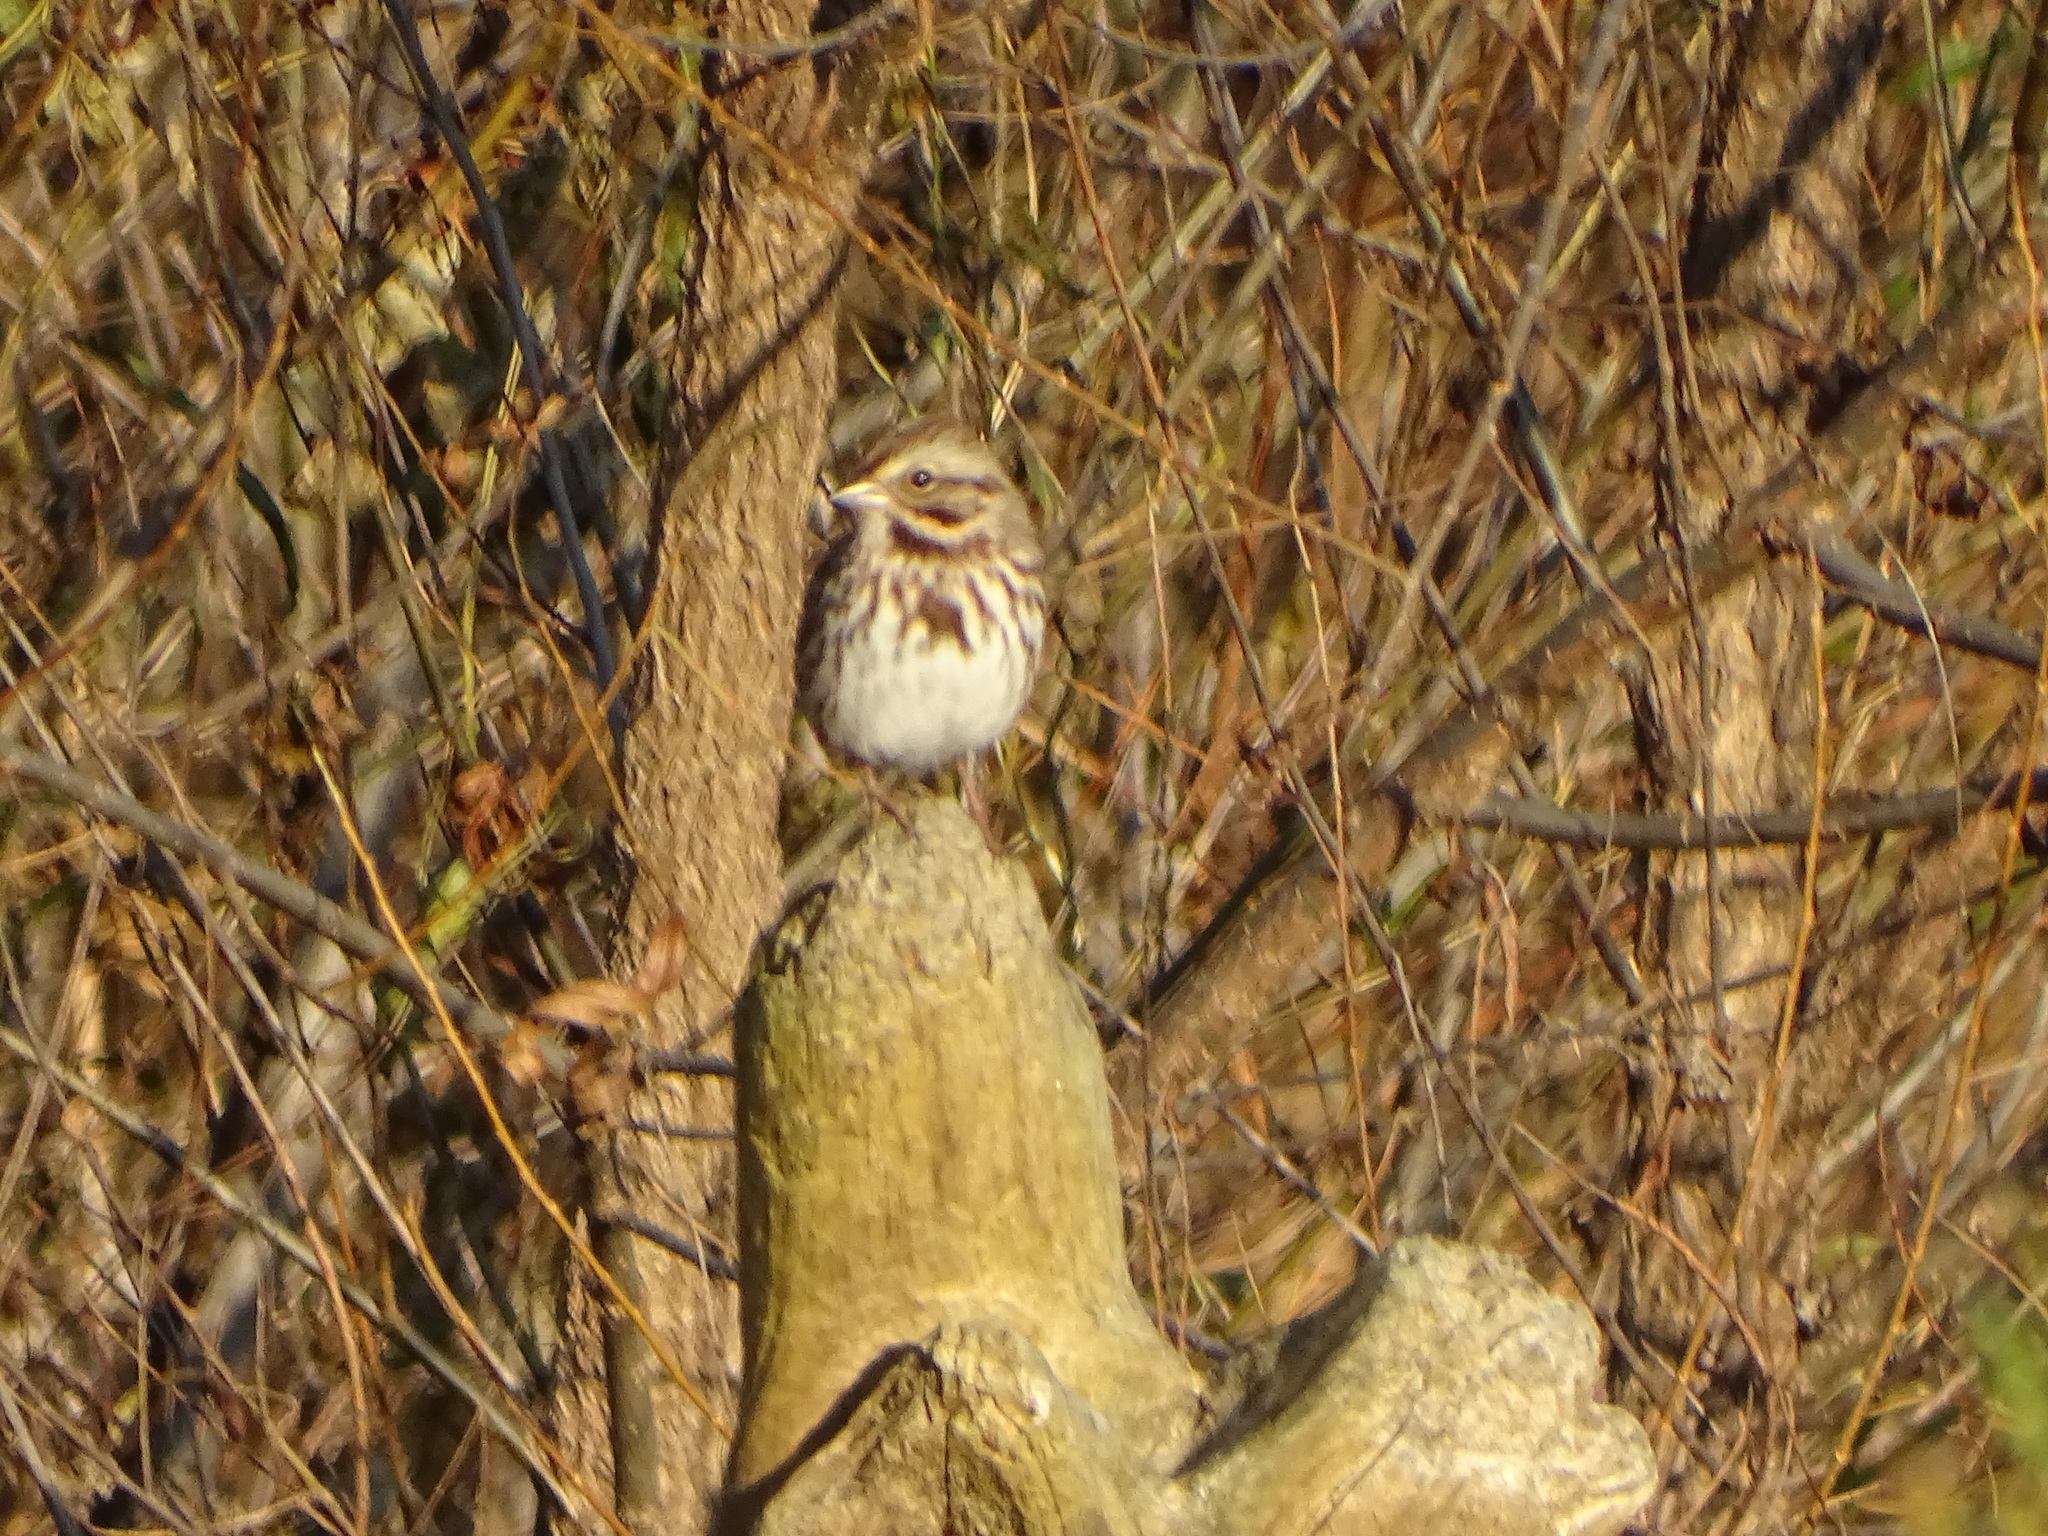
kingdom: Animalia
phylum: Chordata
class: Aves
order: Passeriformes
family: Passerellidae
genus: Melospiza
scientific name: Melospiza melodia
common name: Song sparrow
